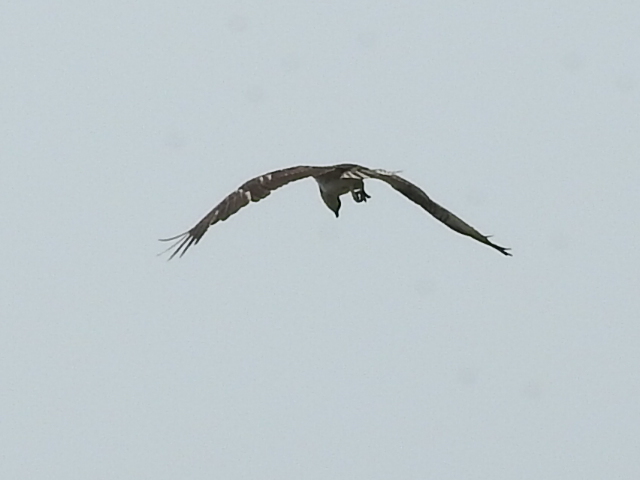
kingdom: Animalia
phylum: Chordata
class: Aves
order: Accipitriformes
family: Pandionidae
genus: Pandion
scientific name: Pandion haliaetus
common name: Osprey
